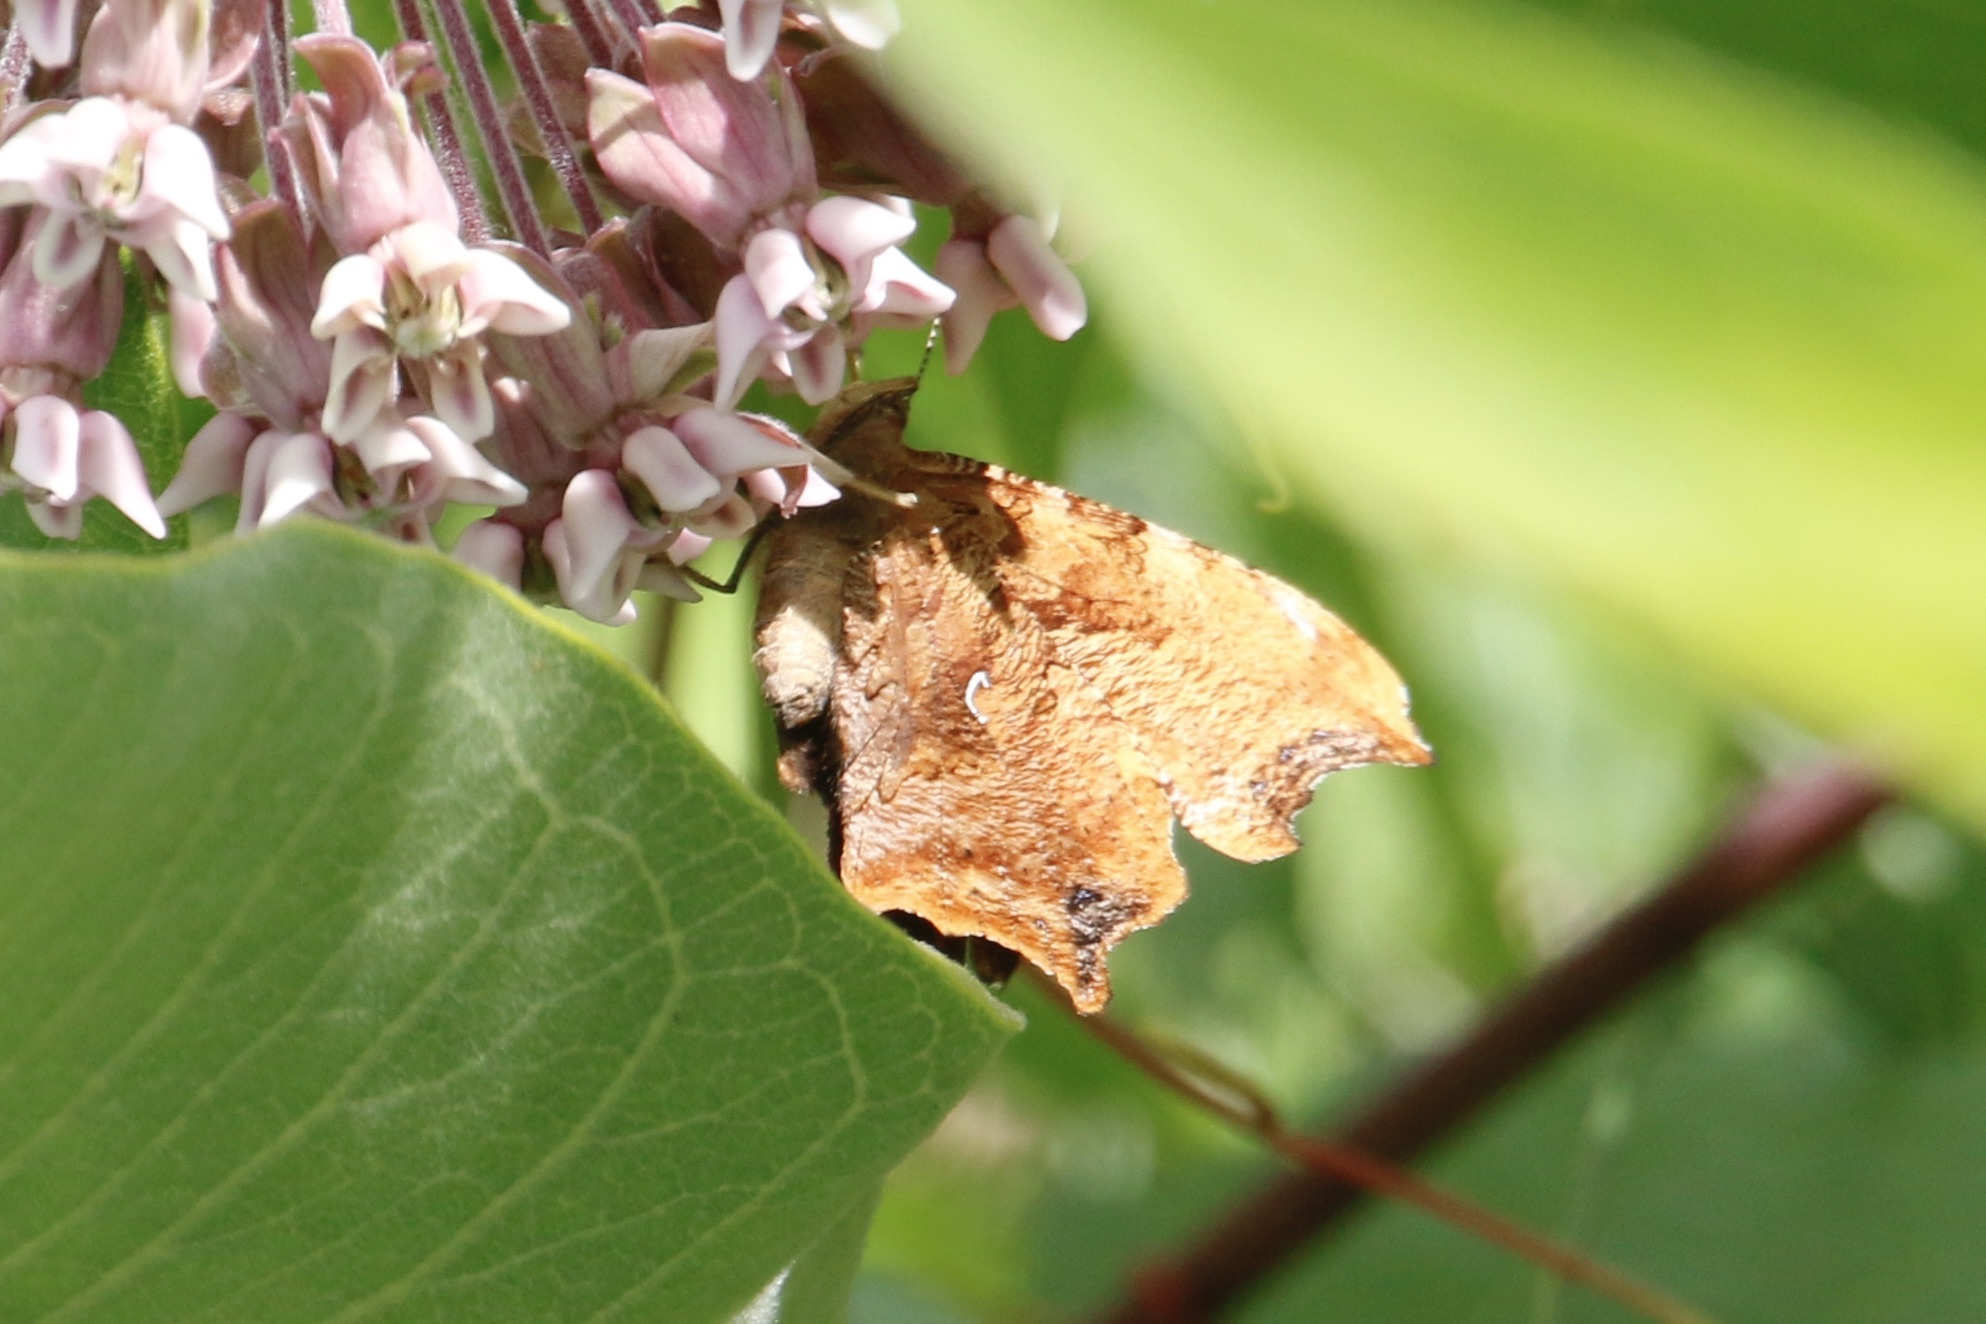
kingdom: Animalia
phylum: Arthropoda
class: Insecta
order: Lepidoptera
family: Nymphalidae
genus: Polygonia
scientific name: Polygonia comma
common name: Eastern comma
